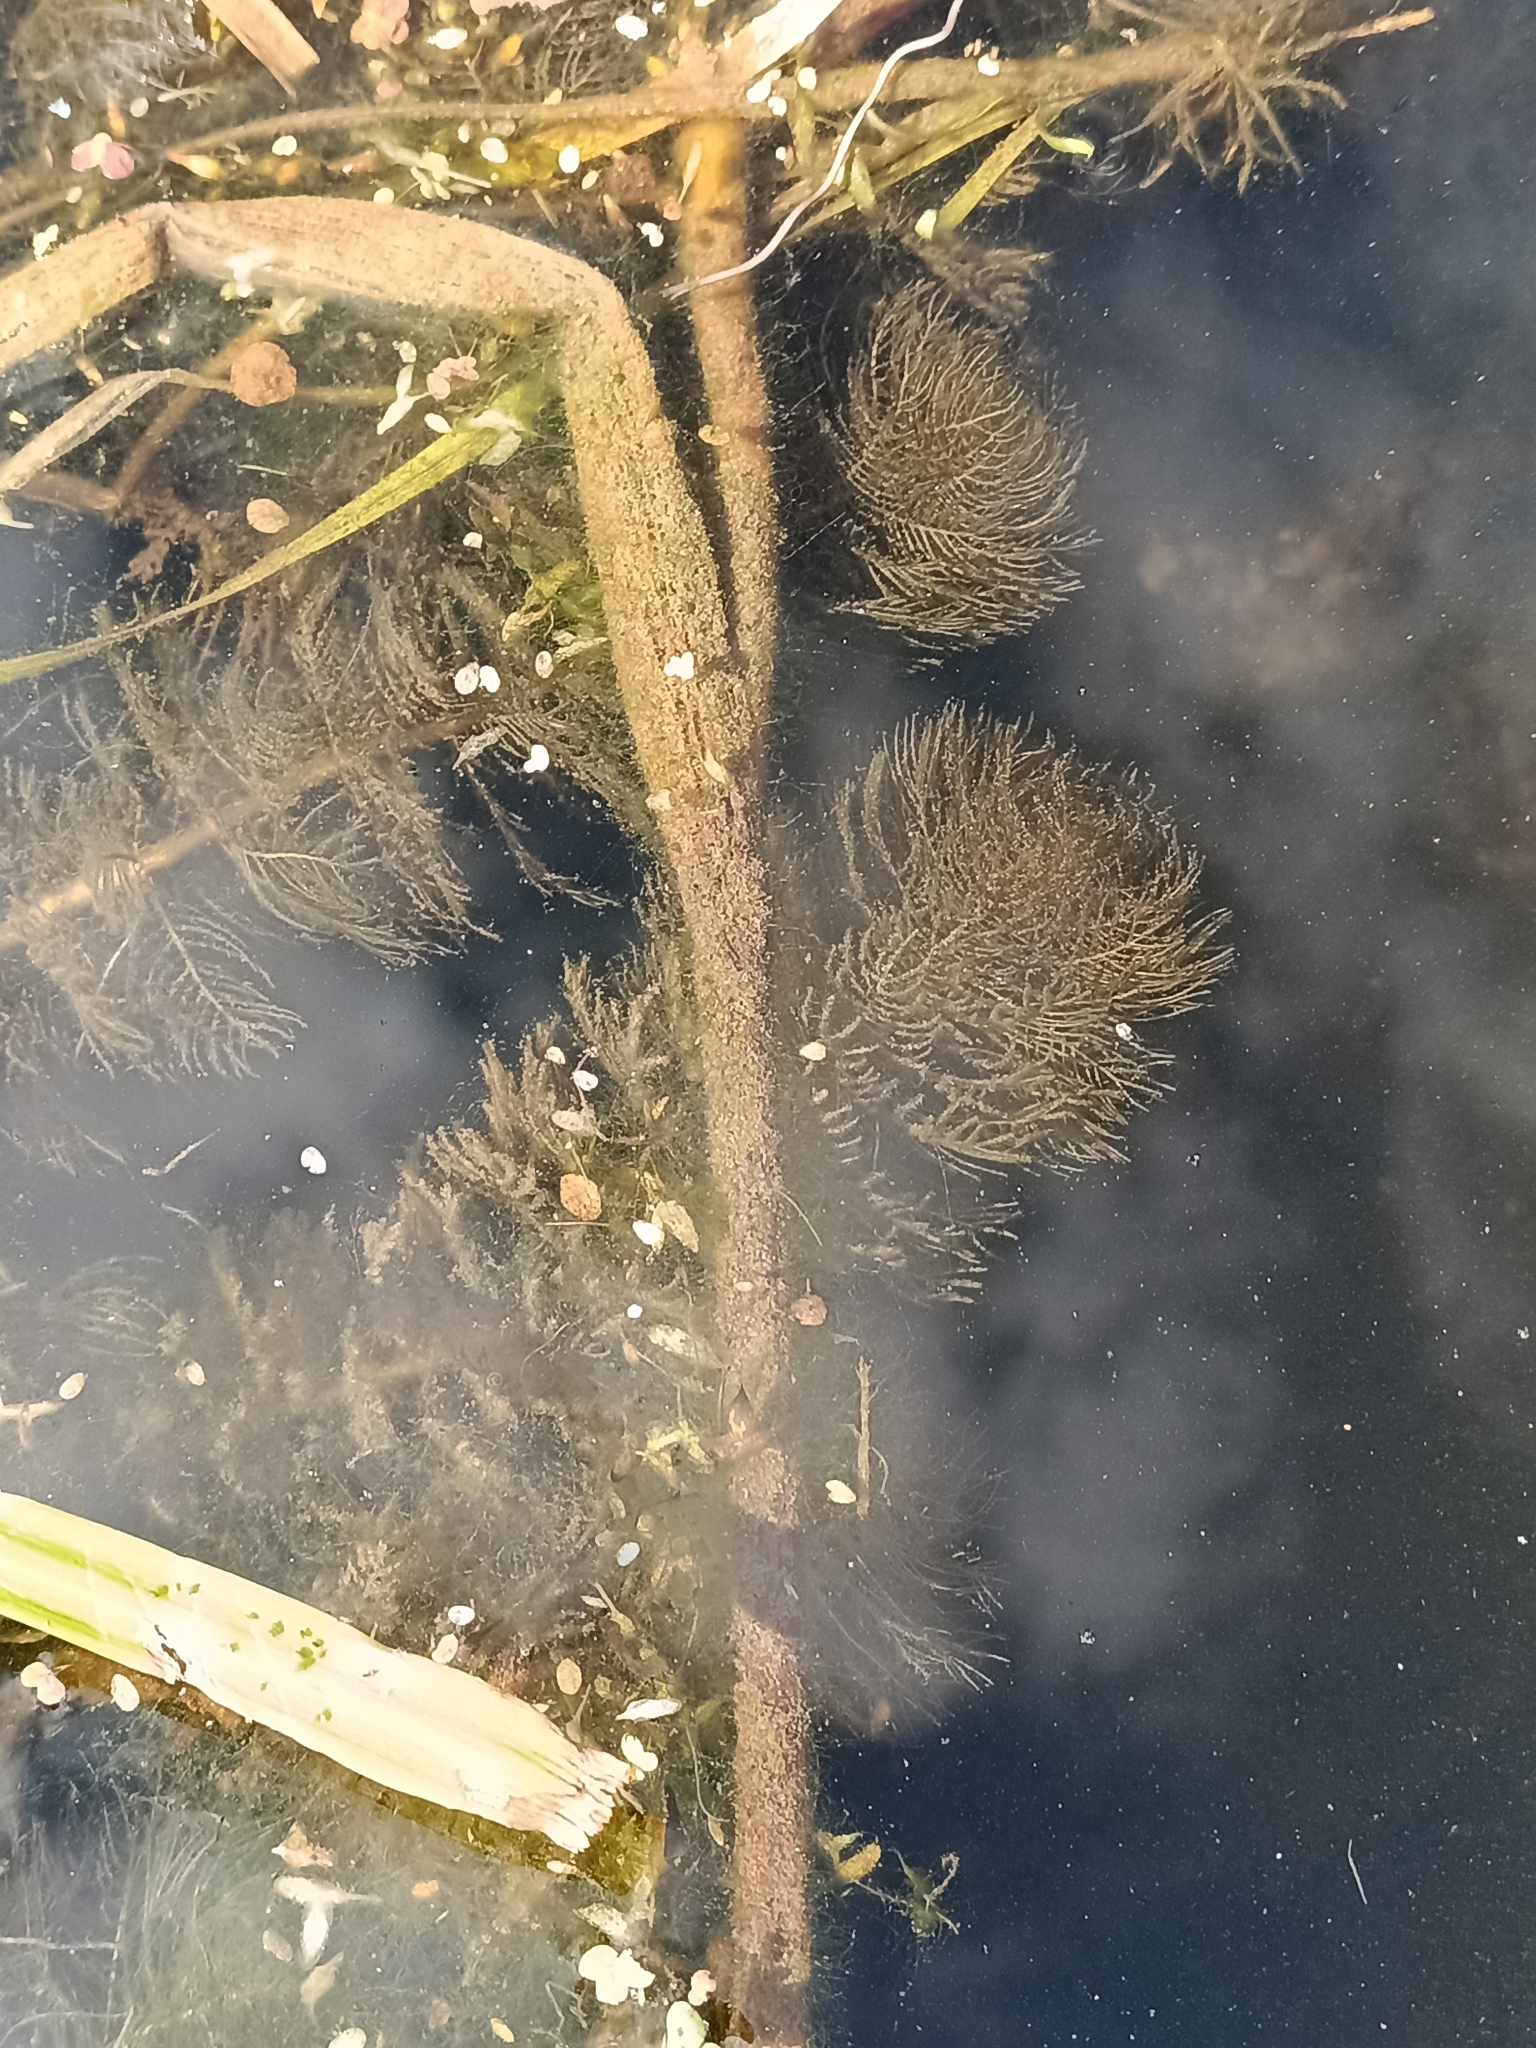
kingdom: Plantae
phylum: Tracheophyta
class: Magnoliopsida
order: Saxifragales
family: Haloragaceae
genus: Myriophyllum
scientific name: Myriophyllum spicatum
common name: Spiked water-milfoil
